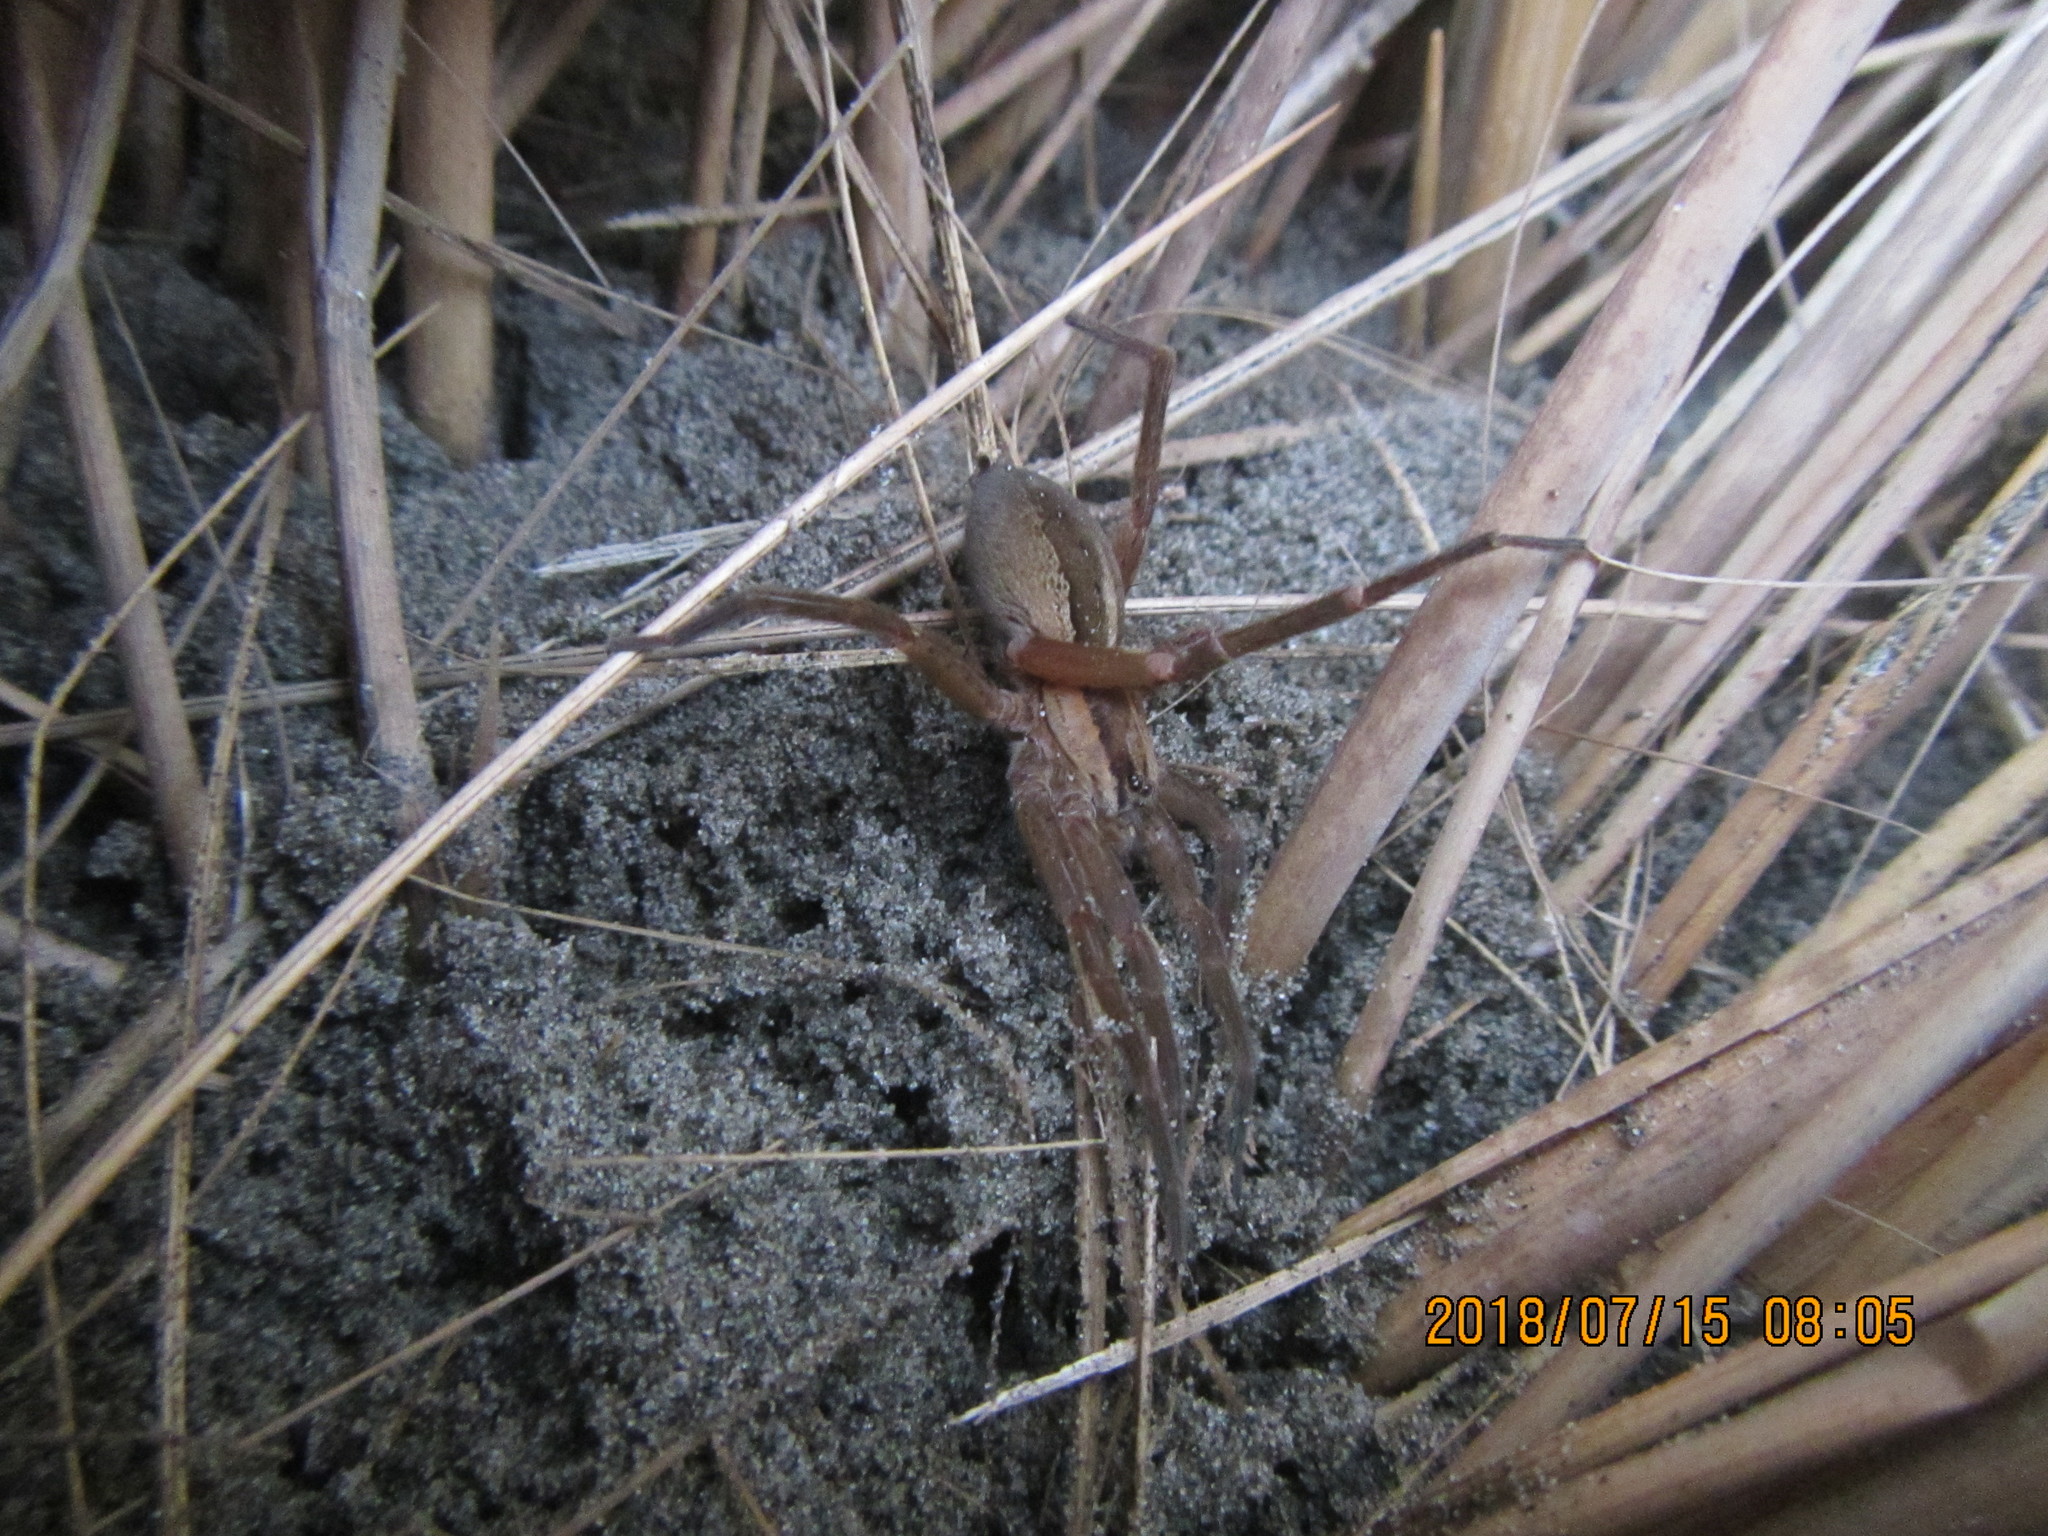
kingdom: Animalia
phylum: Arthropoda
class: Arachnida
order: Araneae
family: Pisauridae
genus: Dolomedes
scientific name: Dolomedes minor
